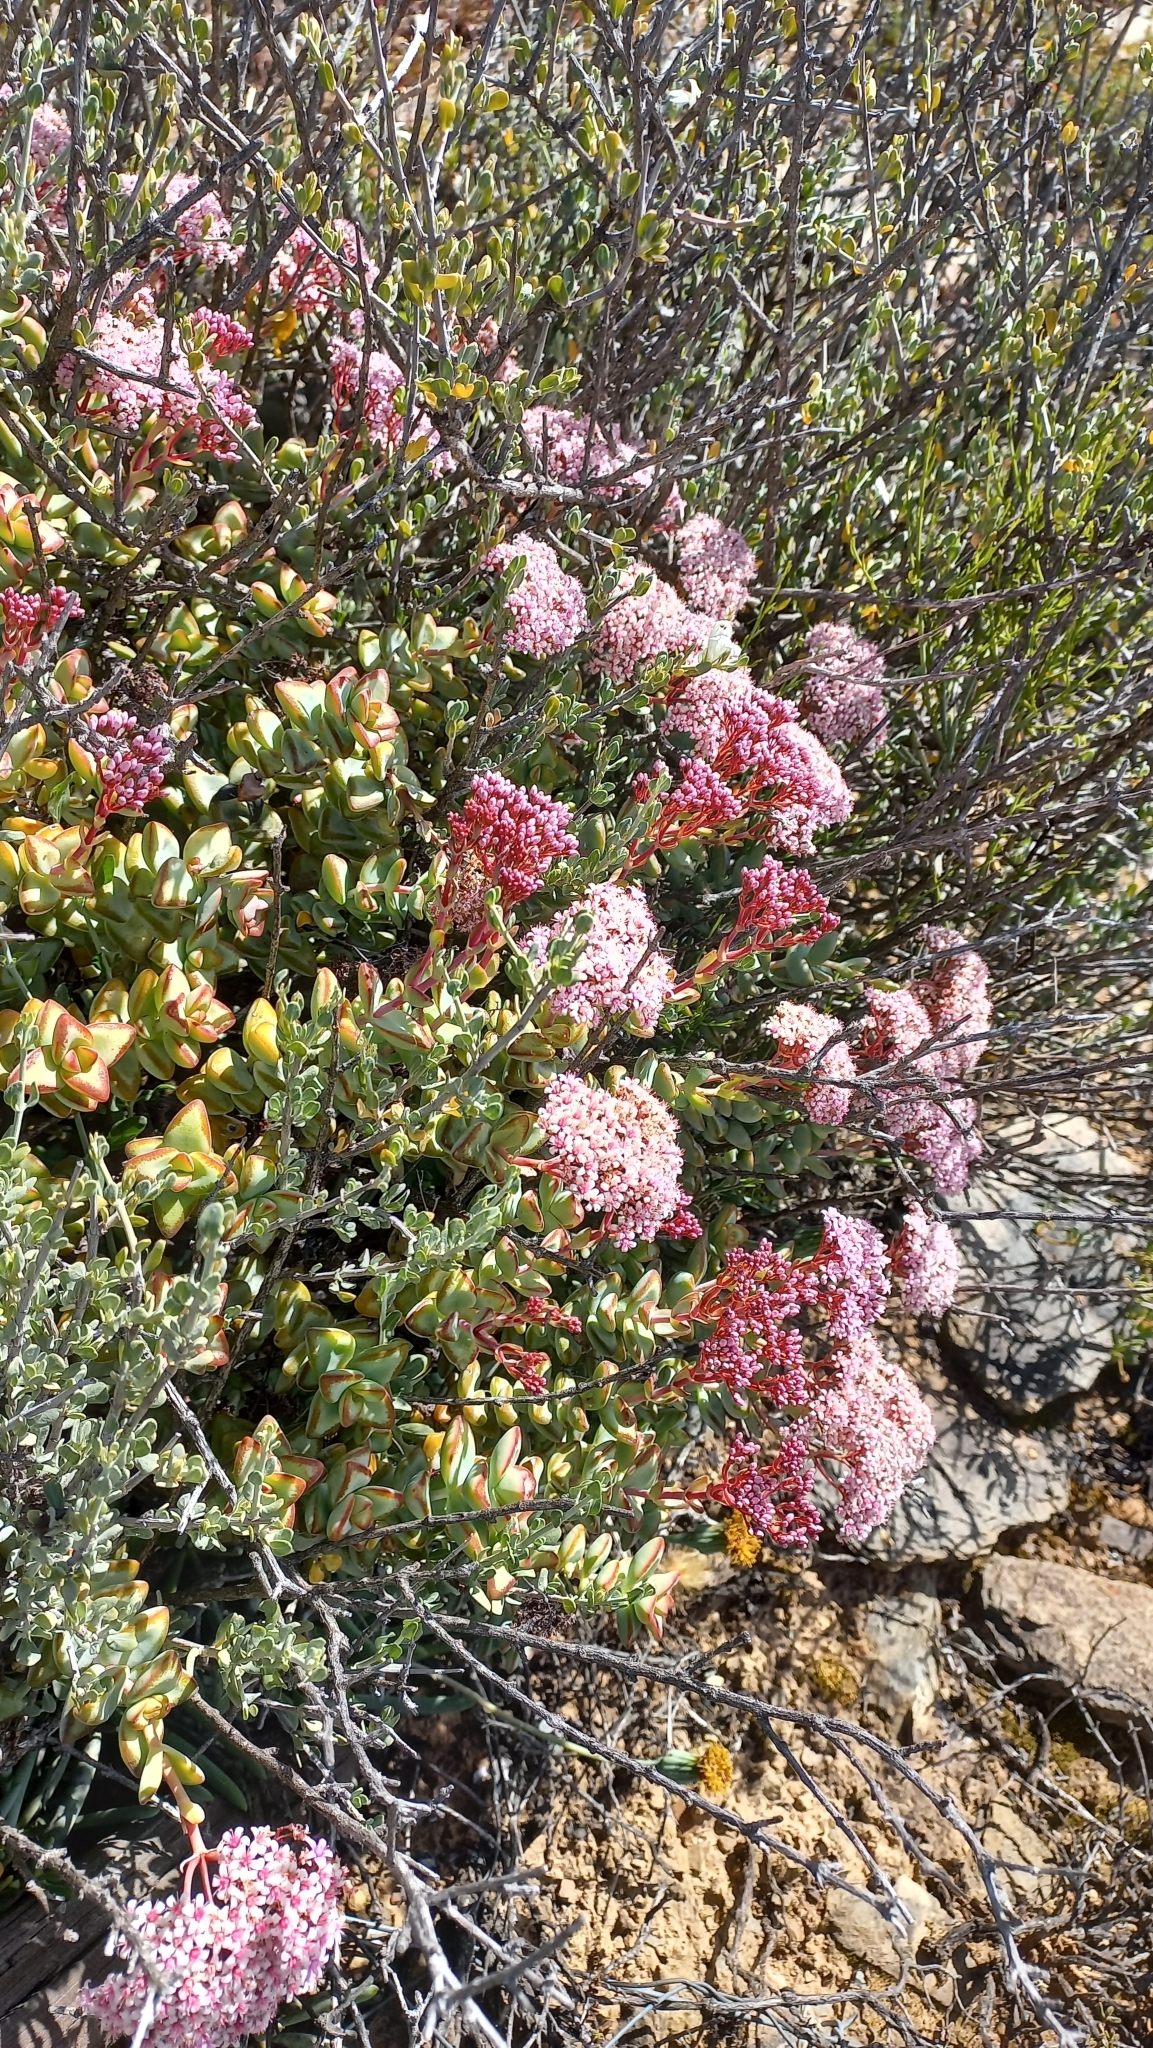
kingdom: Plantae
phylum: Tracheophyta
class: Magnoliopsida
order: Saxifragales
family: Crassulaceae
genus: Crassula
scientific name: Crassula rupestris
